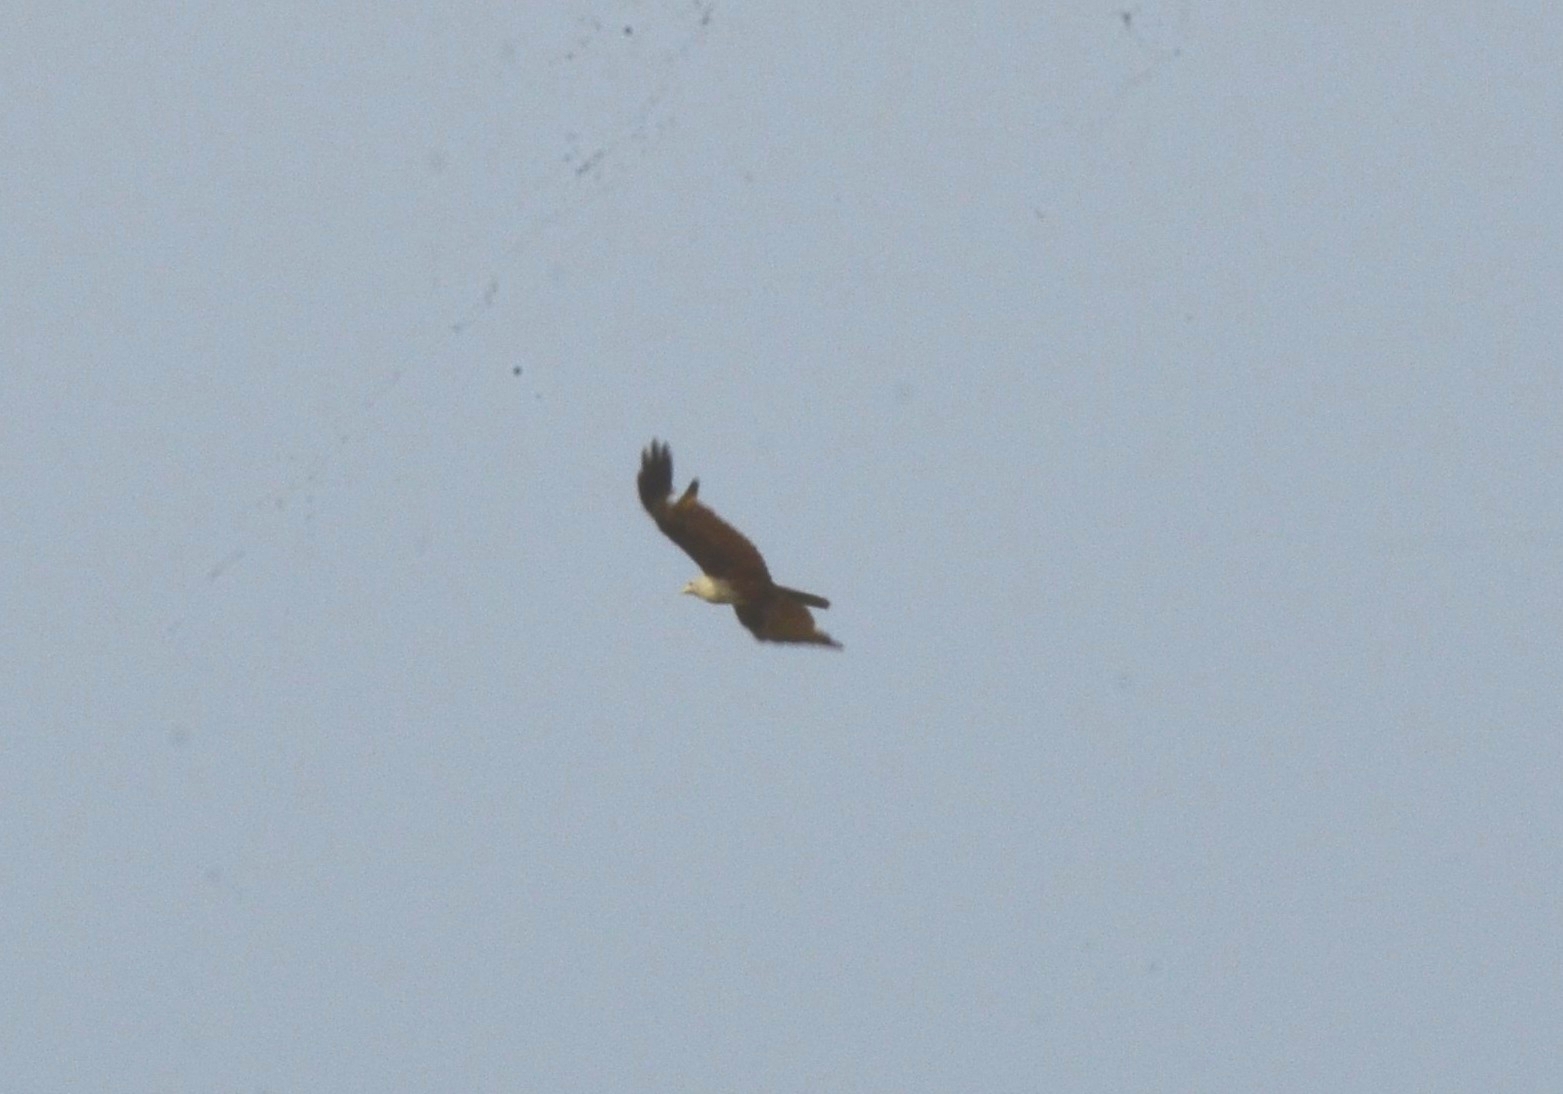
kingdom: Animalia
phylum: Chordata
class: Aves
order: Accipitriformes
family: Accipitridae
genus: Haliastur
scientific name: Haliastur indus
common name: Brahminy kite
